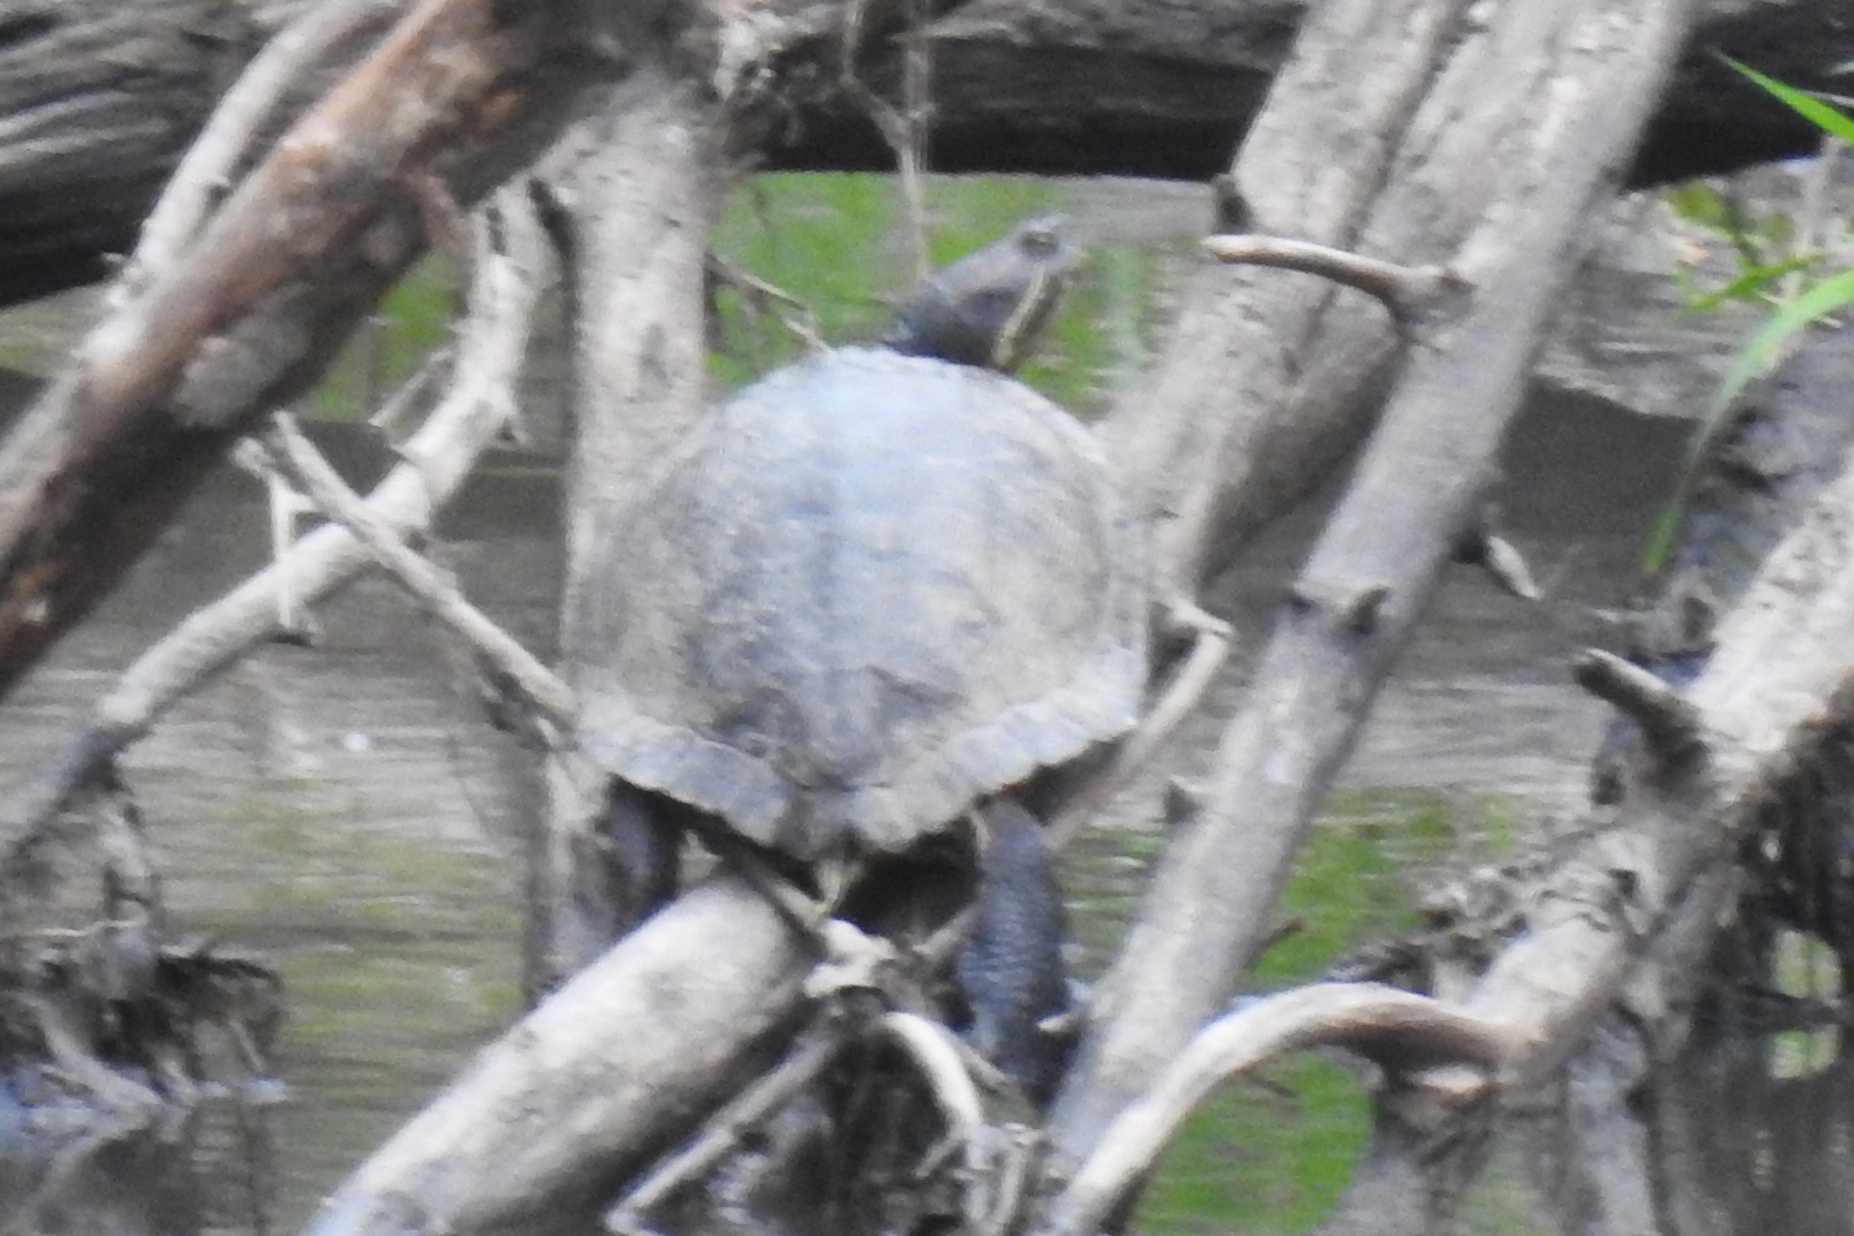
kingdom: Animalia
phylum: Chordata
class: Testudines
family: Emydidae
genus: Trachemys
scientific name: Trachemys scripta
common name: Slider
